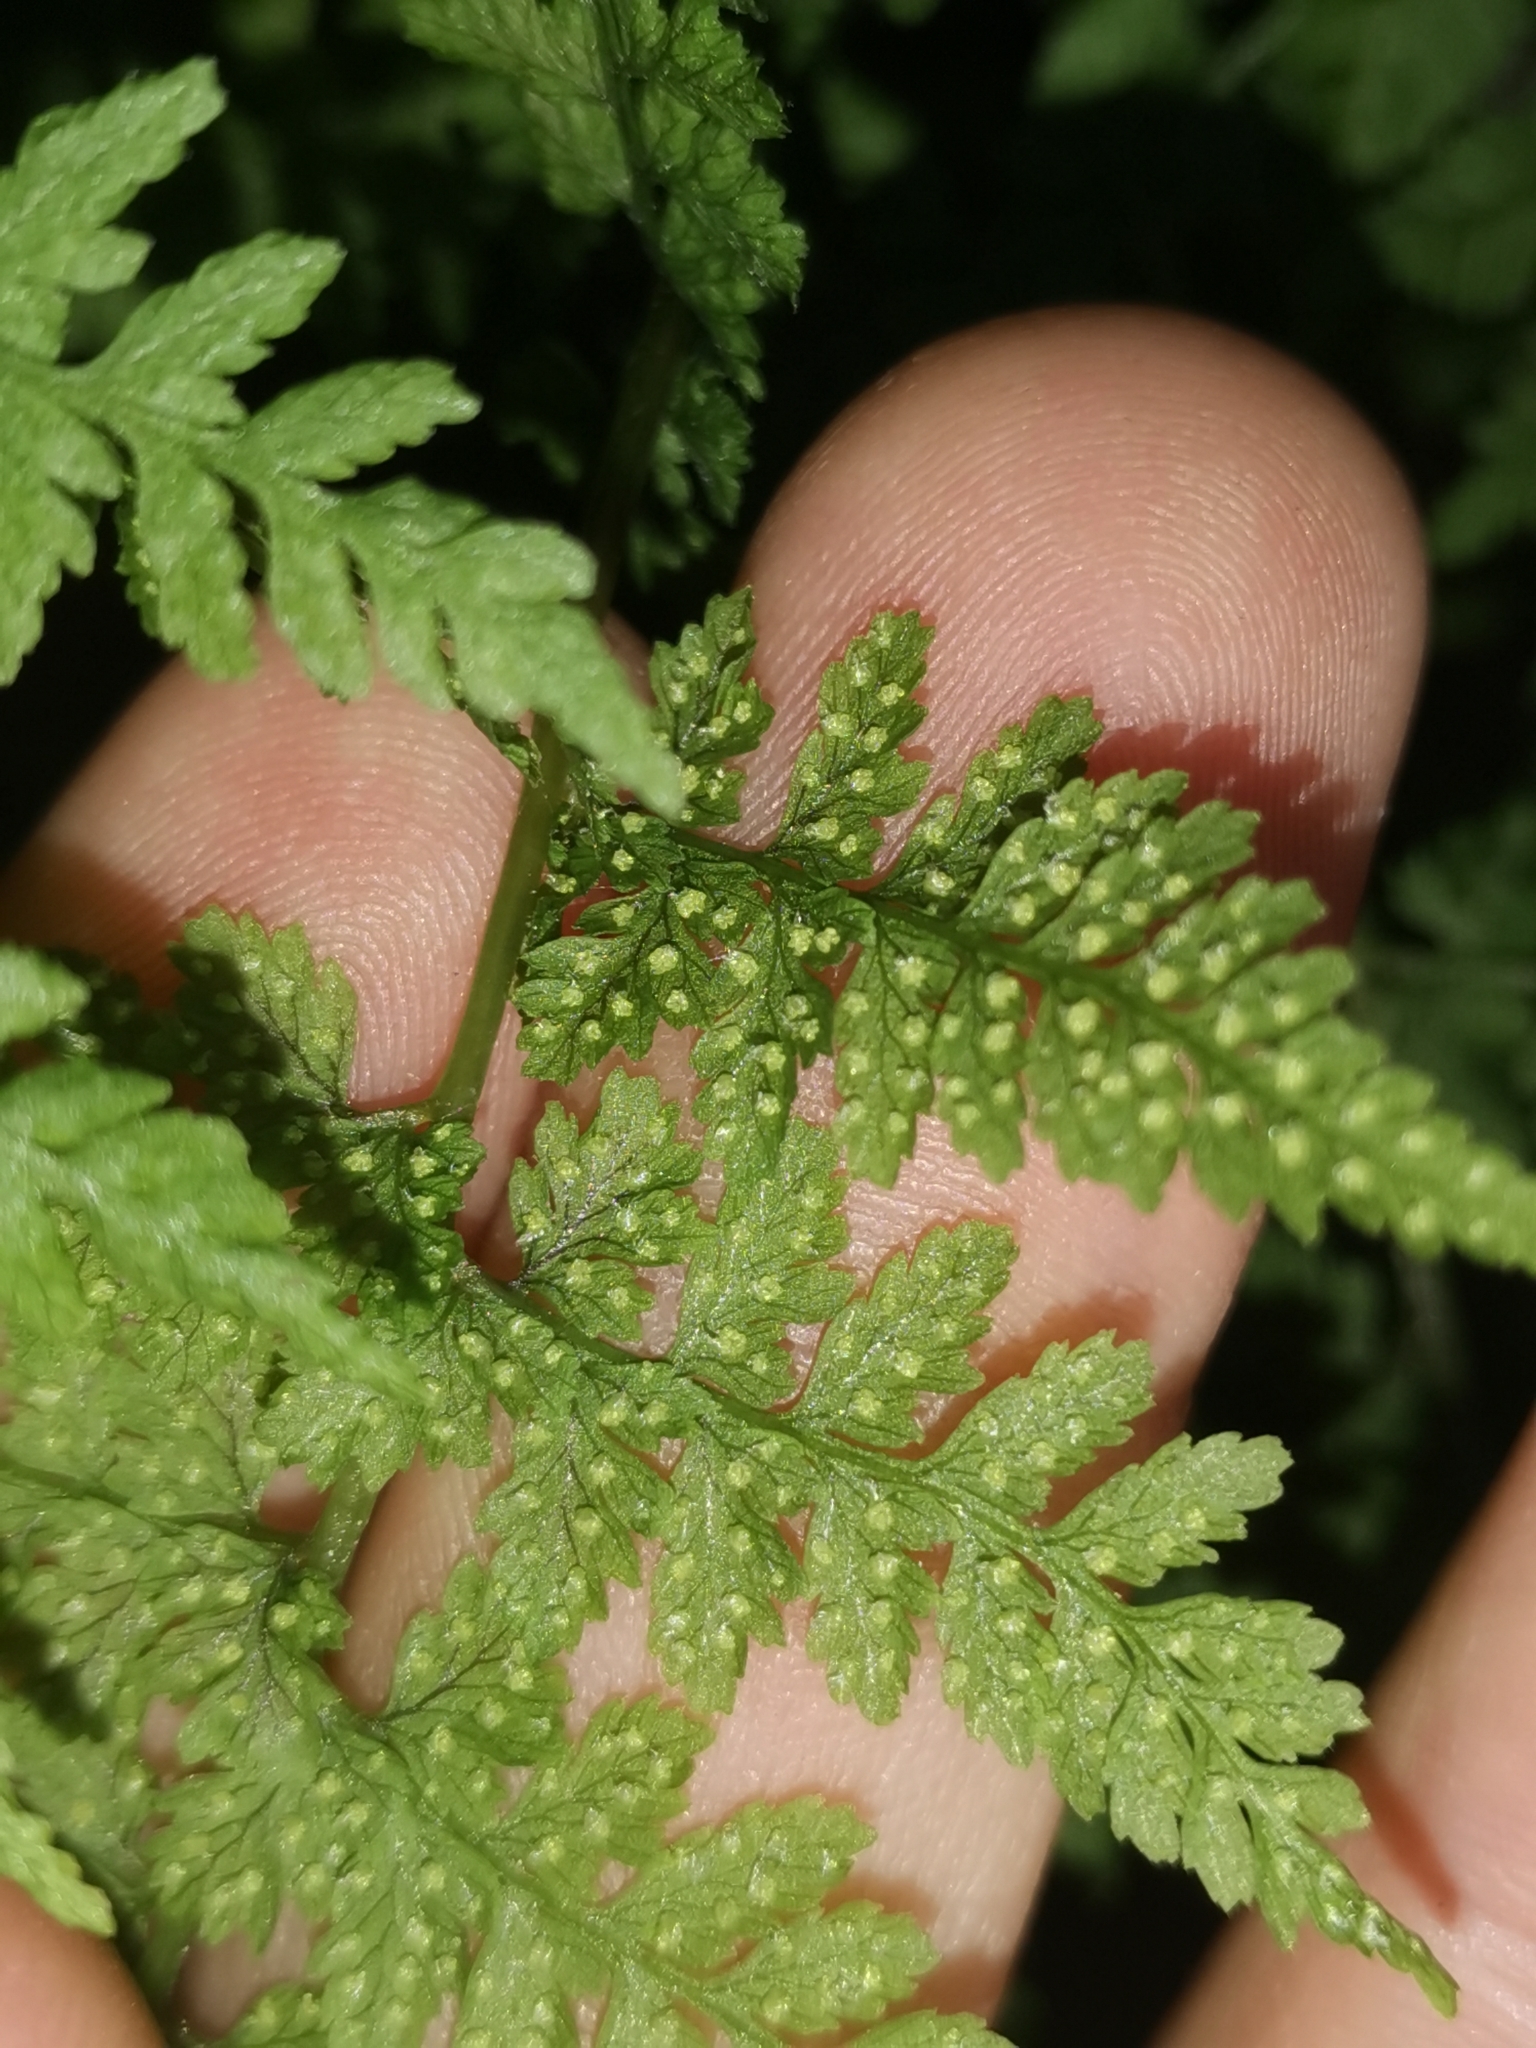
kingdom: Plantae
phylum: Tracheophyta
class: Polypodiopsida
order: Polypodiales
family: Cystopteridaceae
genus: Cystopteris
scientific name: Cystopteris fragilis
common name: Brittle bladder fern
